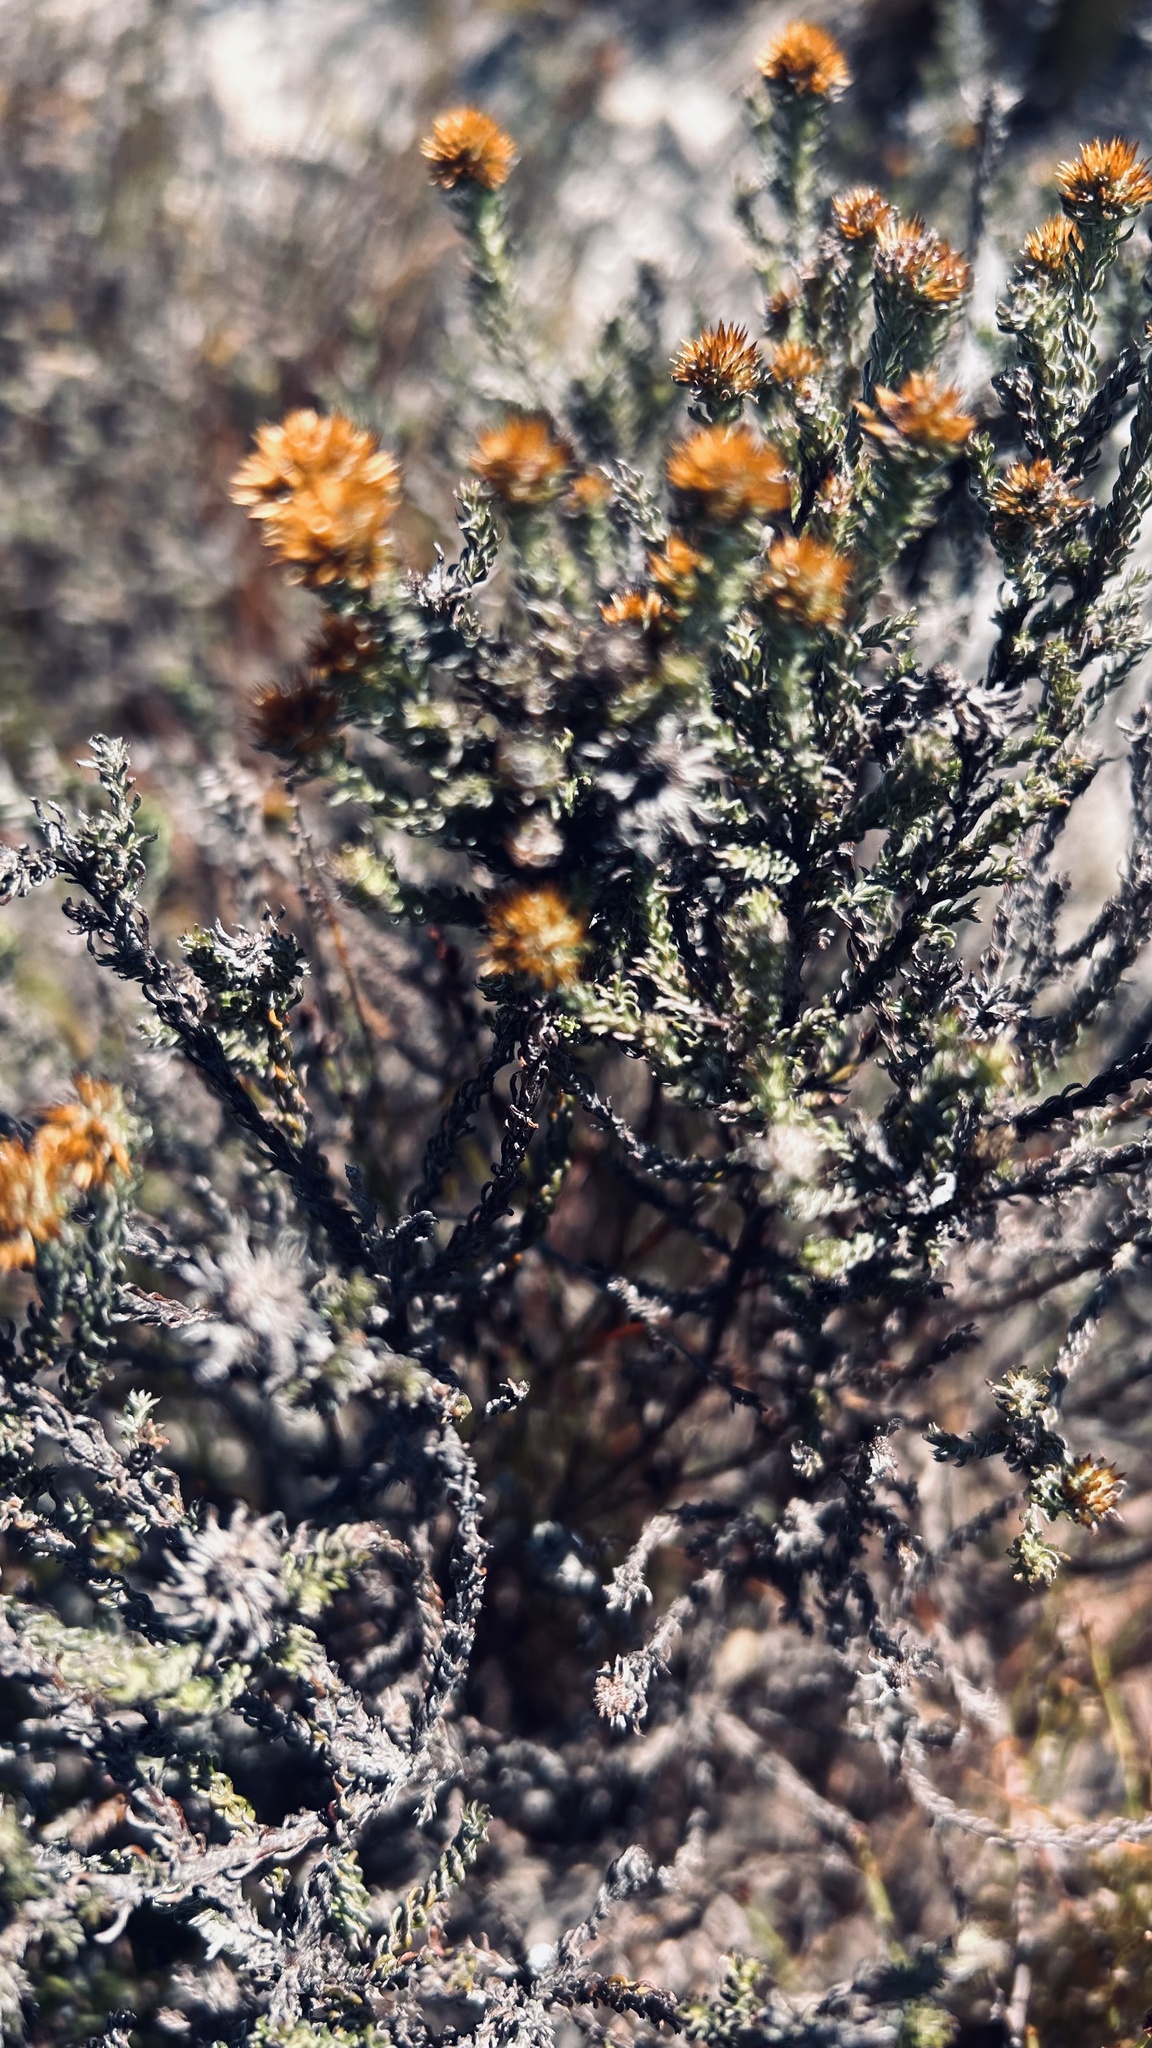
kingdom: Plantae
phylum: Tracheophyta
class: Magnoliopsida
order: Asterales
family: Asteraceae
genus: Disparago
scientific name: Disparago anomala
